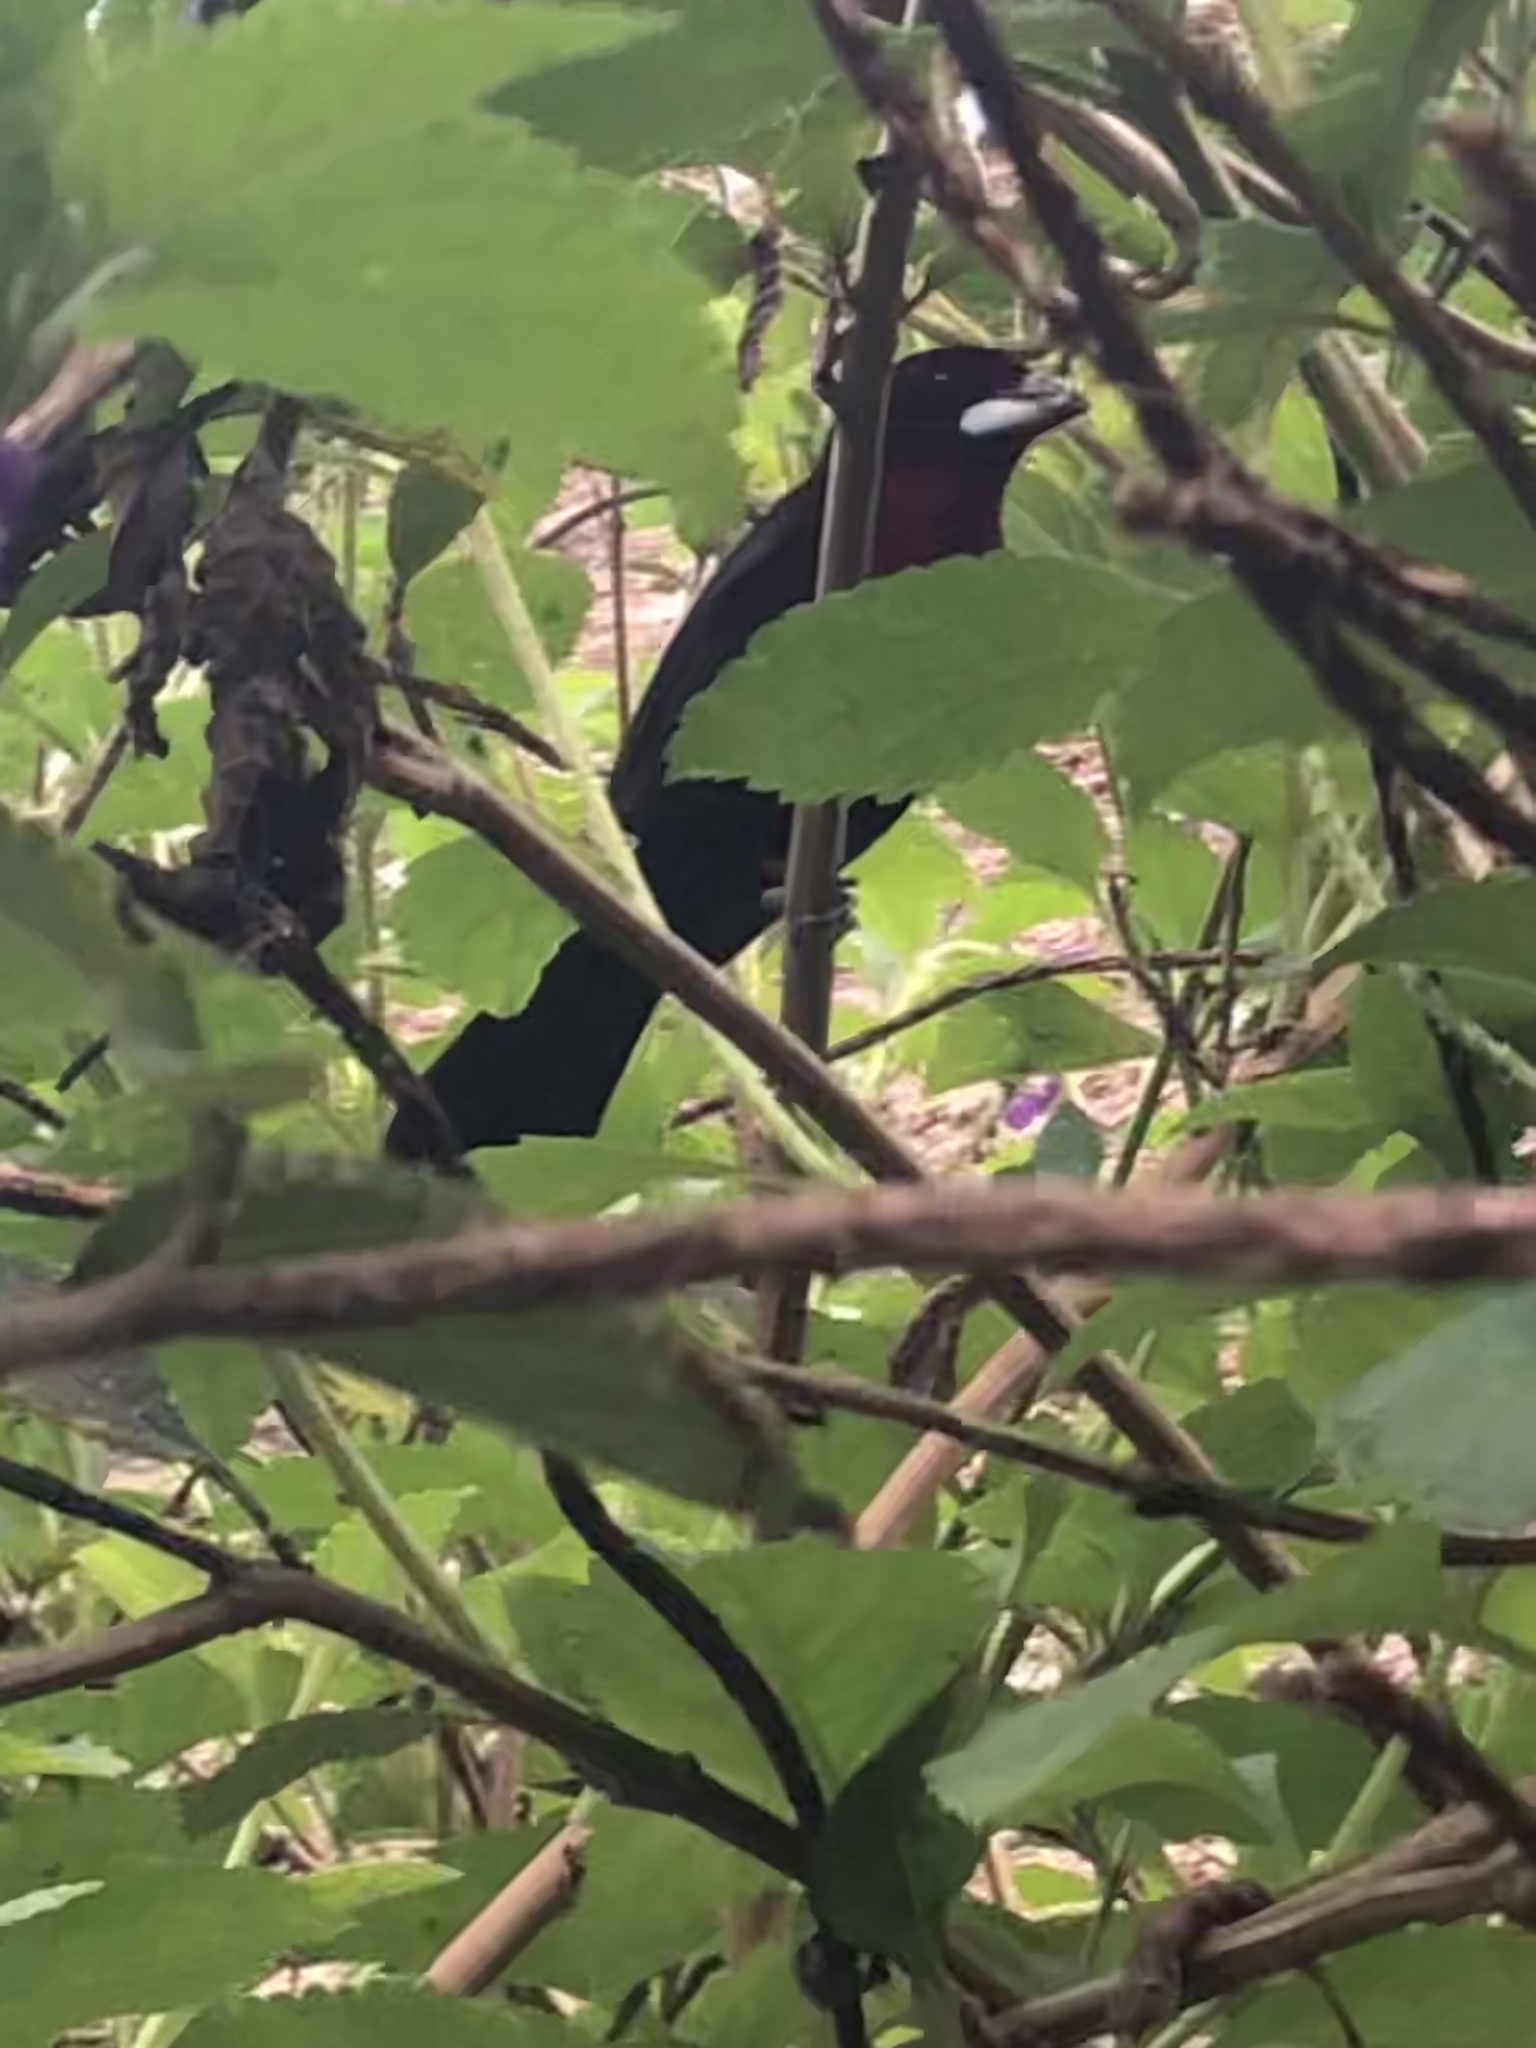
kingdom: Animalia
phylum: Chordata
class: Aves
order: Passeriformes
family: Thraupidae
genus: Ramphocelus
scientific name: Ramphocelus carbo
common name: Silver-beaked tanager
